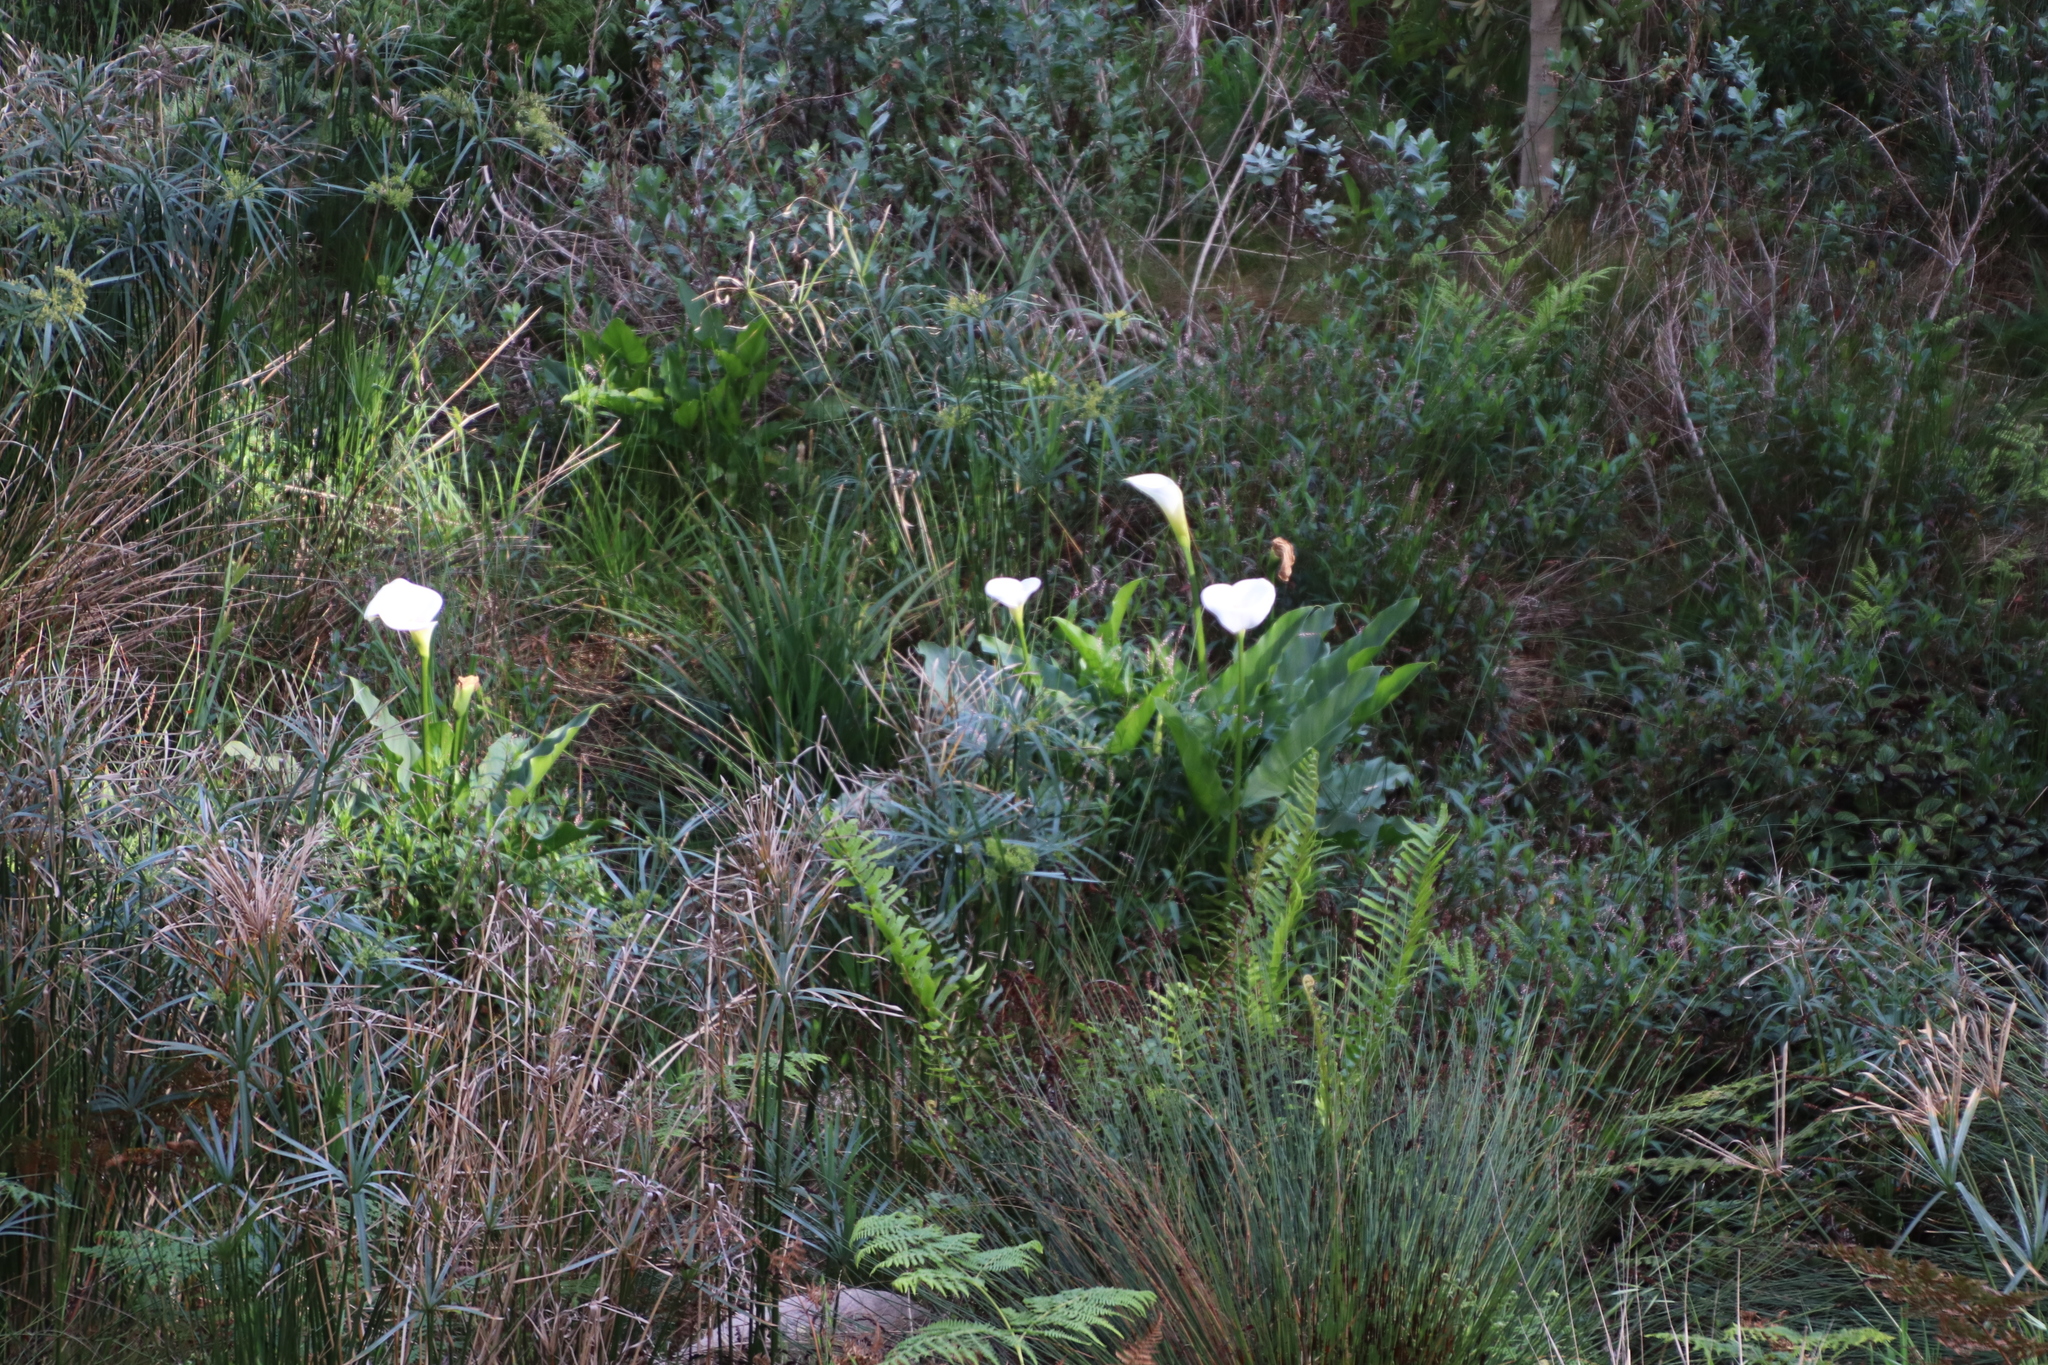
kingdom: Plantae
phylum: Tracheophyta
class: Liliopsida
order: Alismatales
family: Araceae
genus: Zantedeschia
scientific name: Zantedeschia aethiopica
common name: Altar-lily
